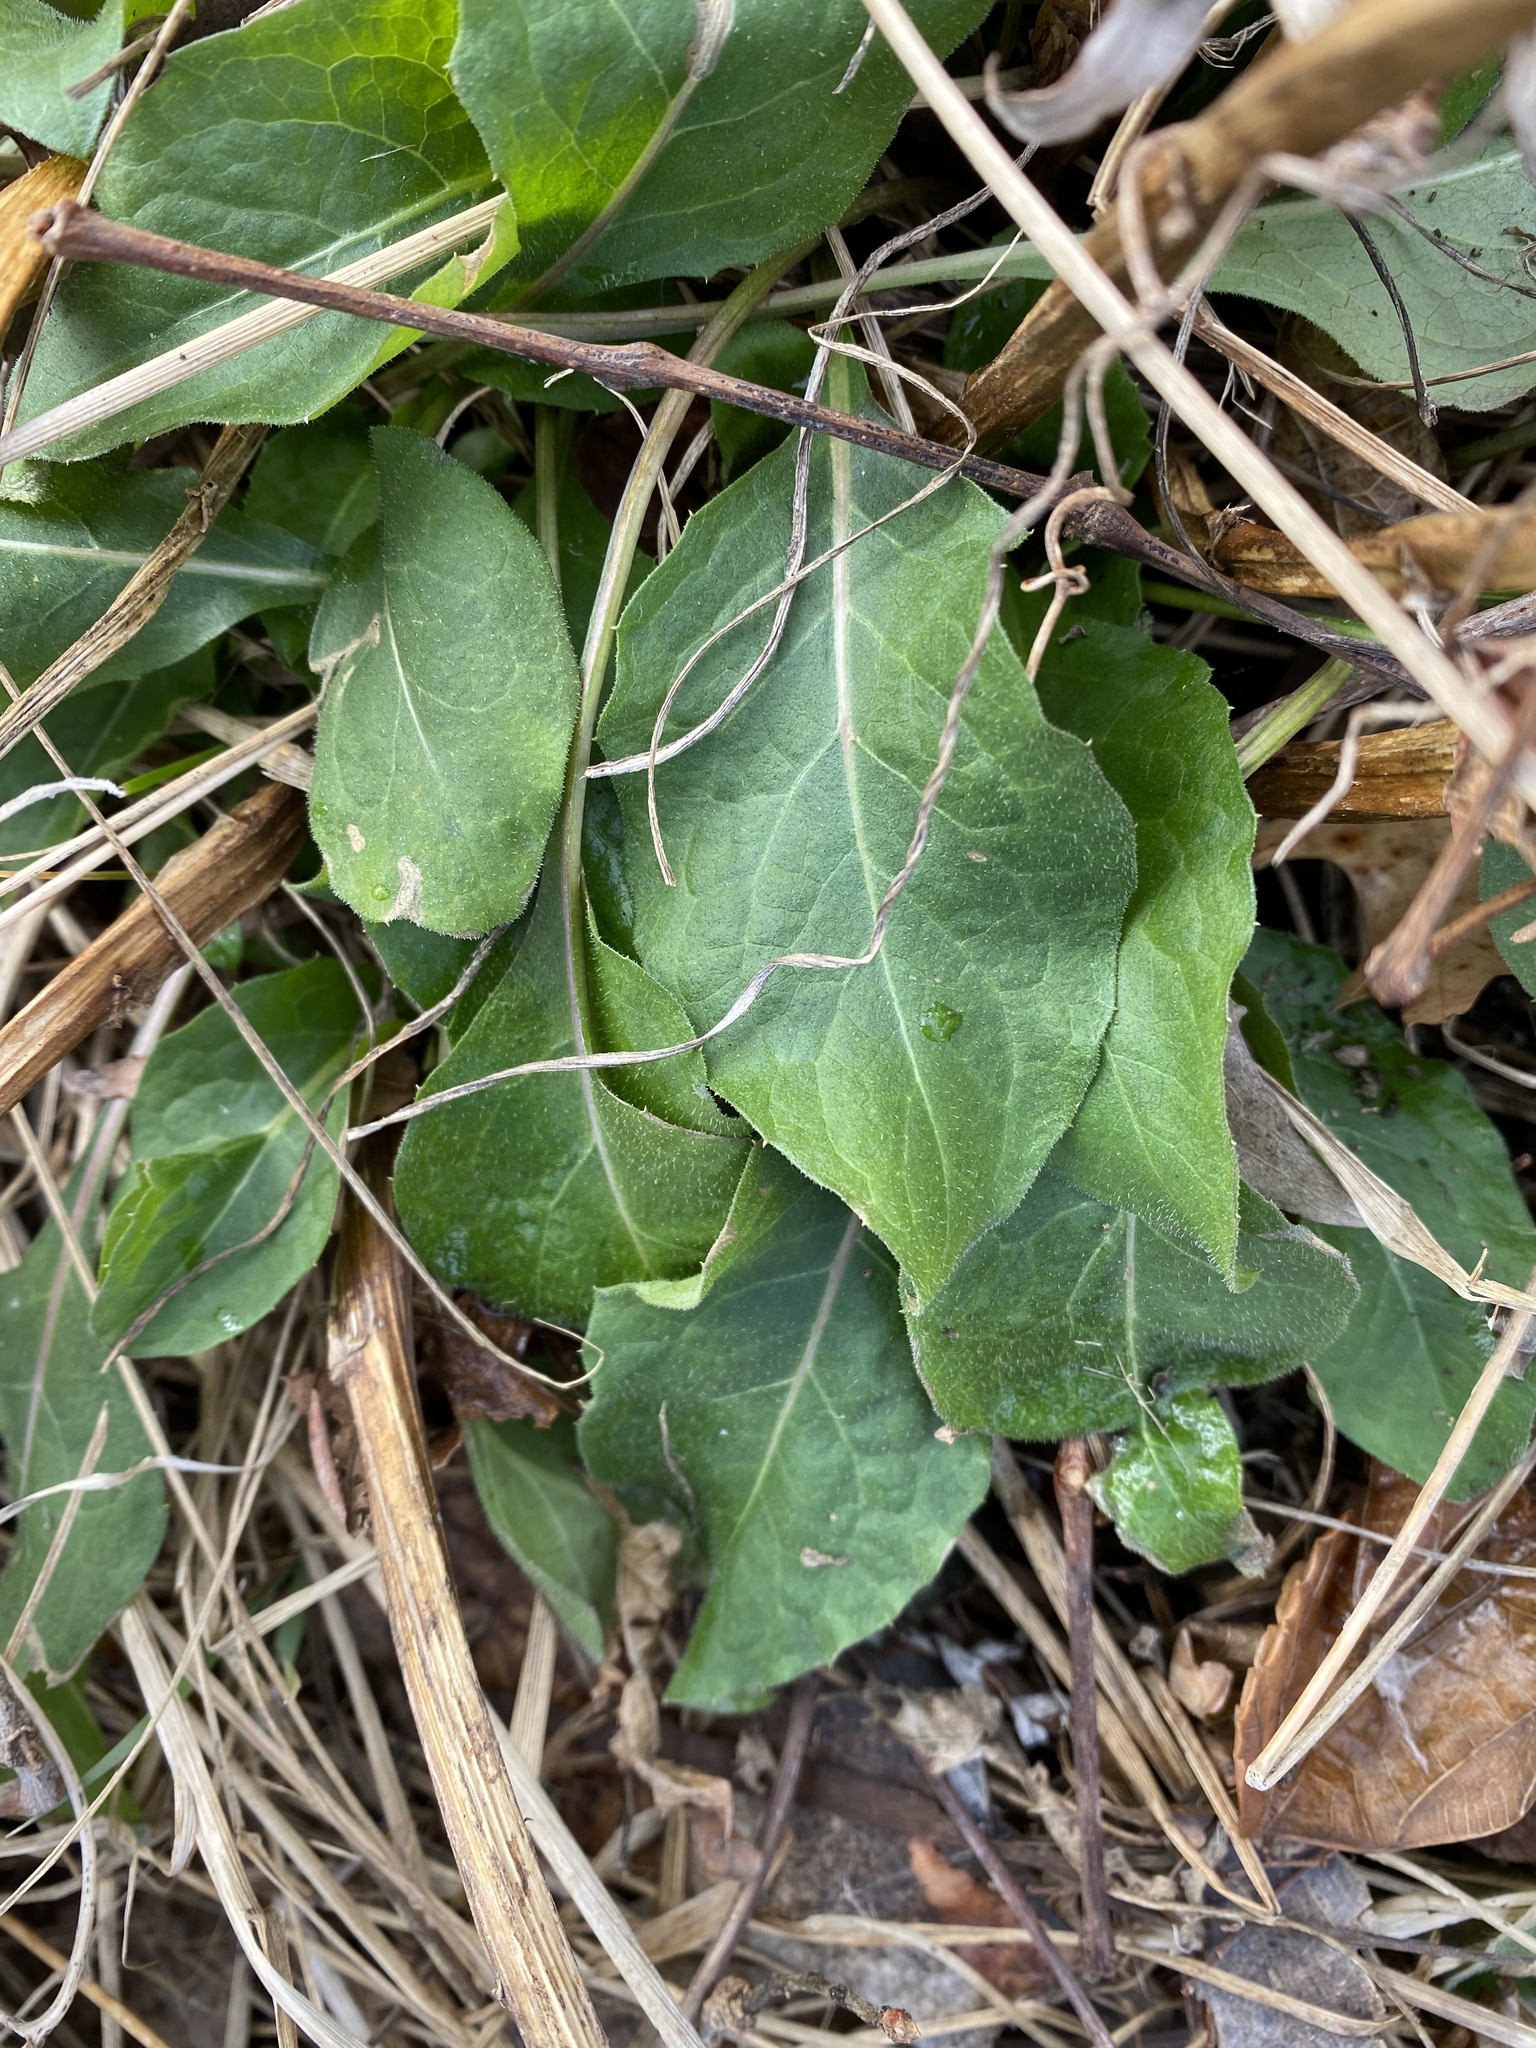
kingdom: Plantae
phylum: Tracheophyta
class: Magnoliopsida
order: Asterales
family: Asteraceae
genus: Centaurea
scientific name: Centaurea nigrescens
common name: Tyrol knapweed
